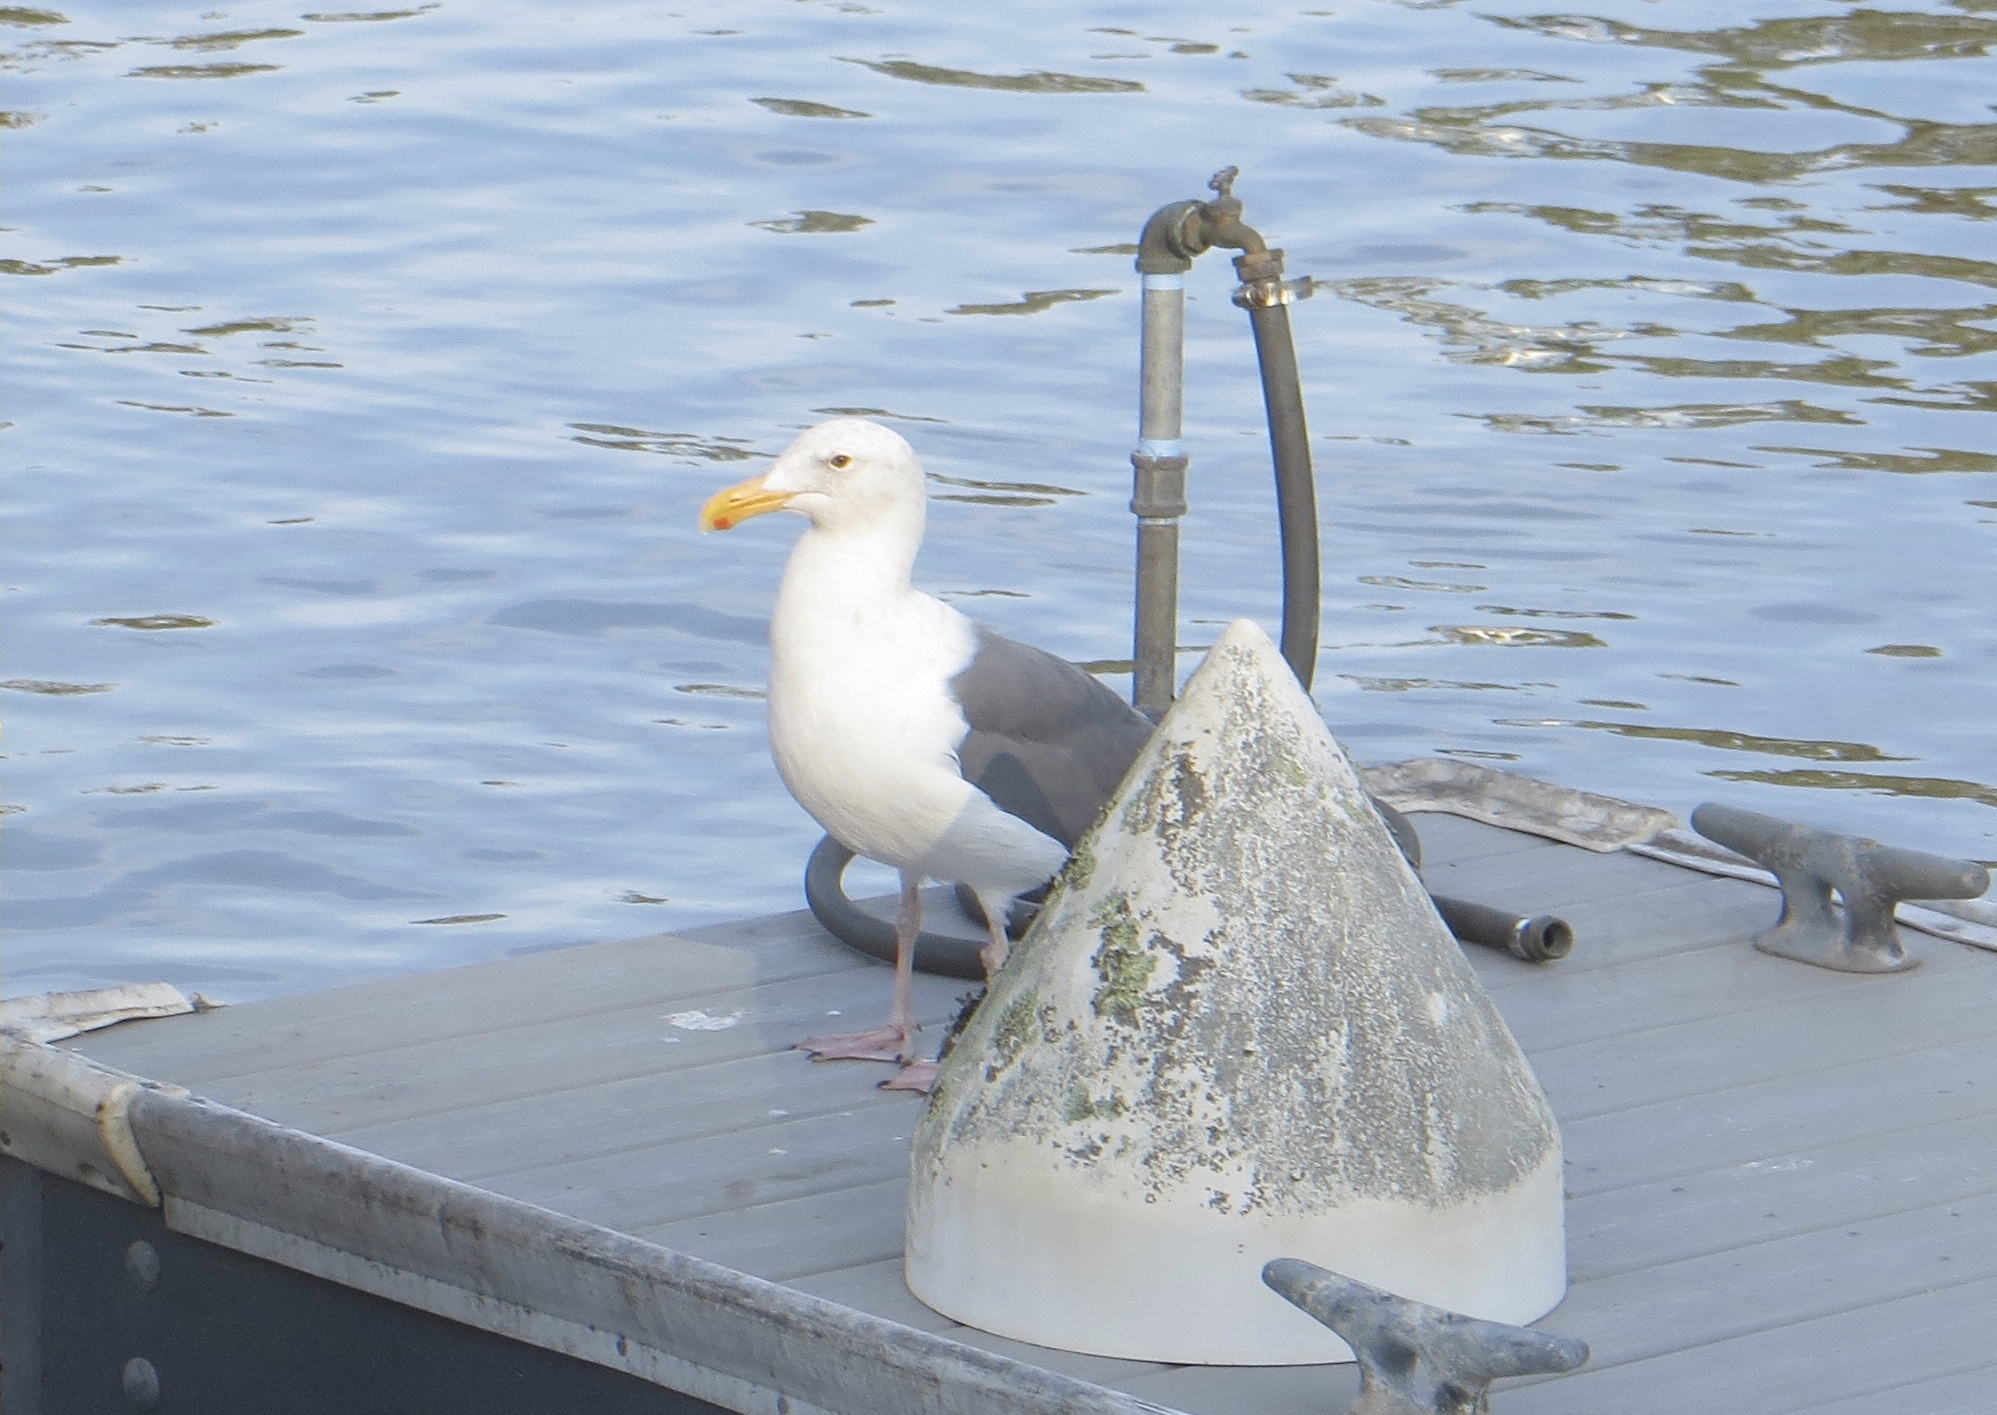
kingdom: Animalia
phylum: Chordata
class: Aves
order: Charadriiformes
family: Laridae
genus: Larus
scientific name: Larus occidentalis
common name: Western gull
